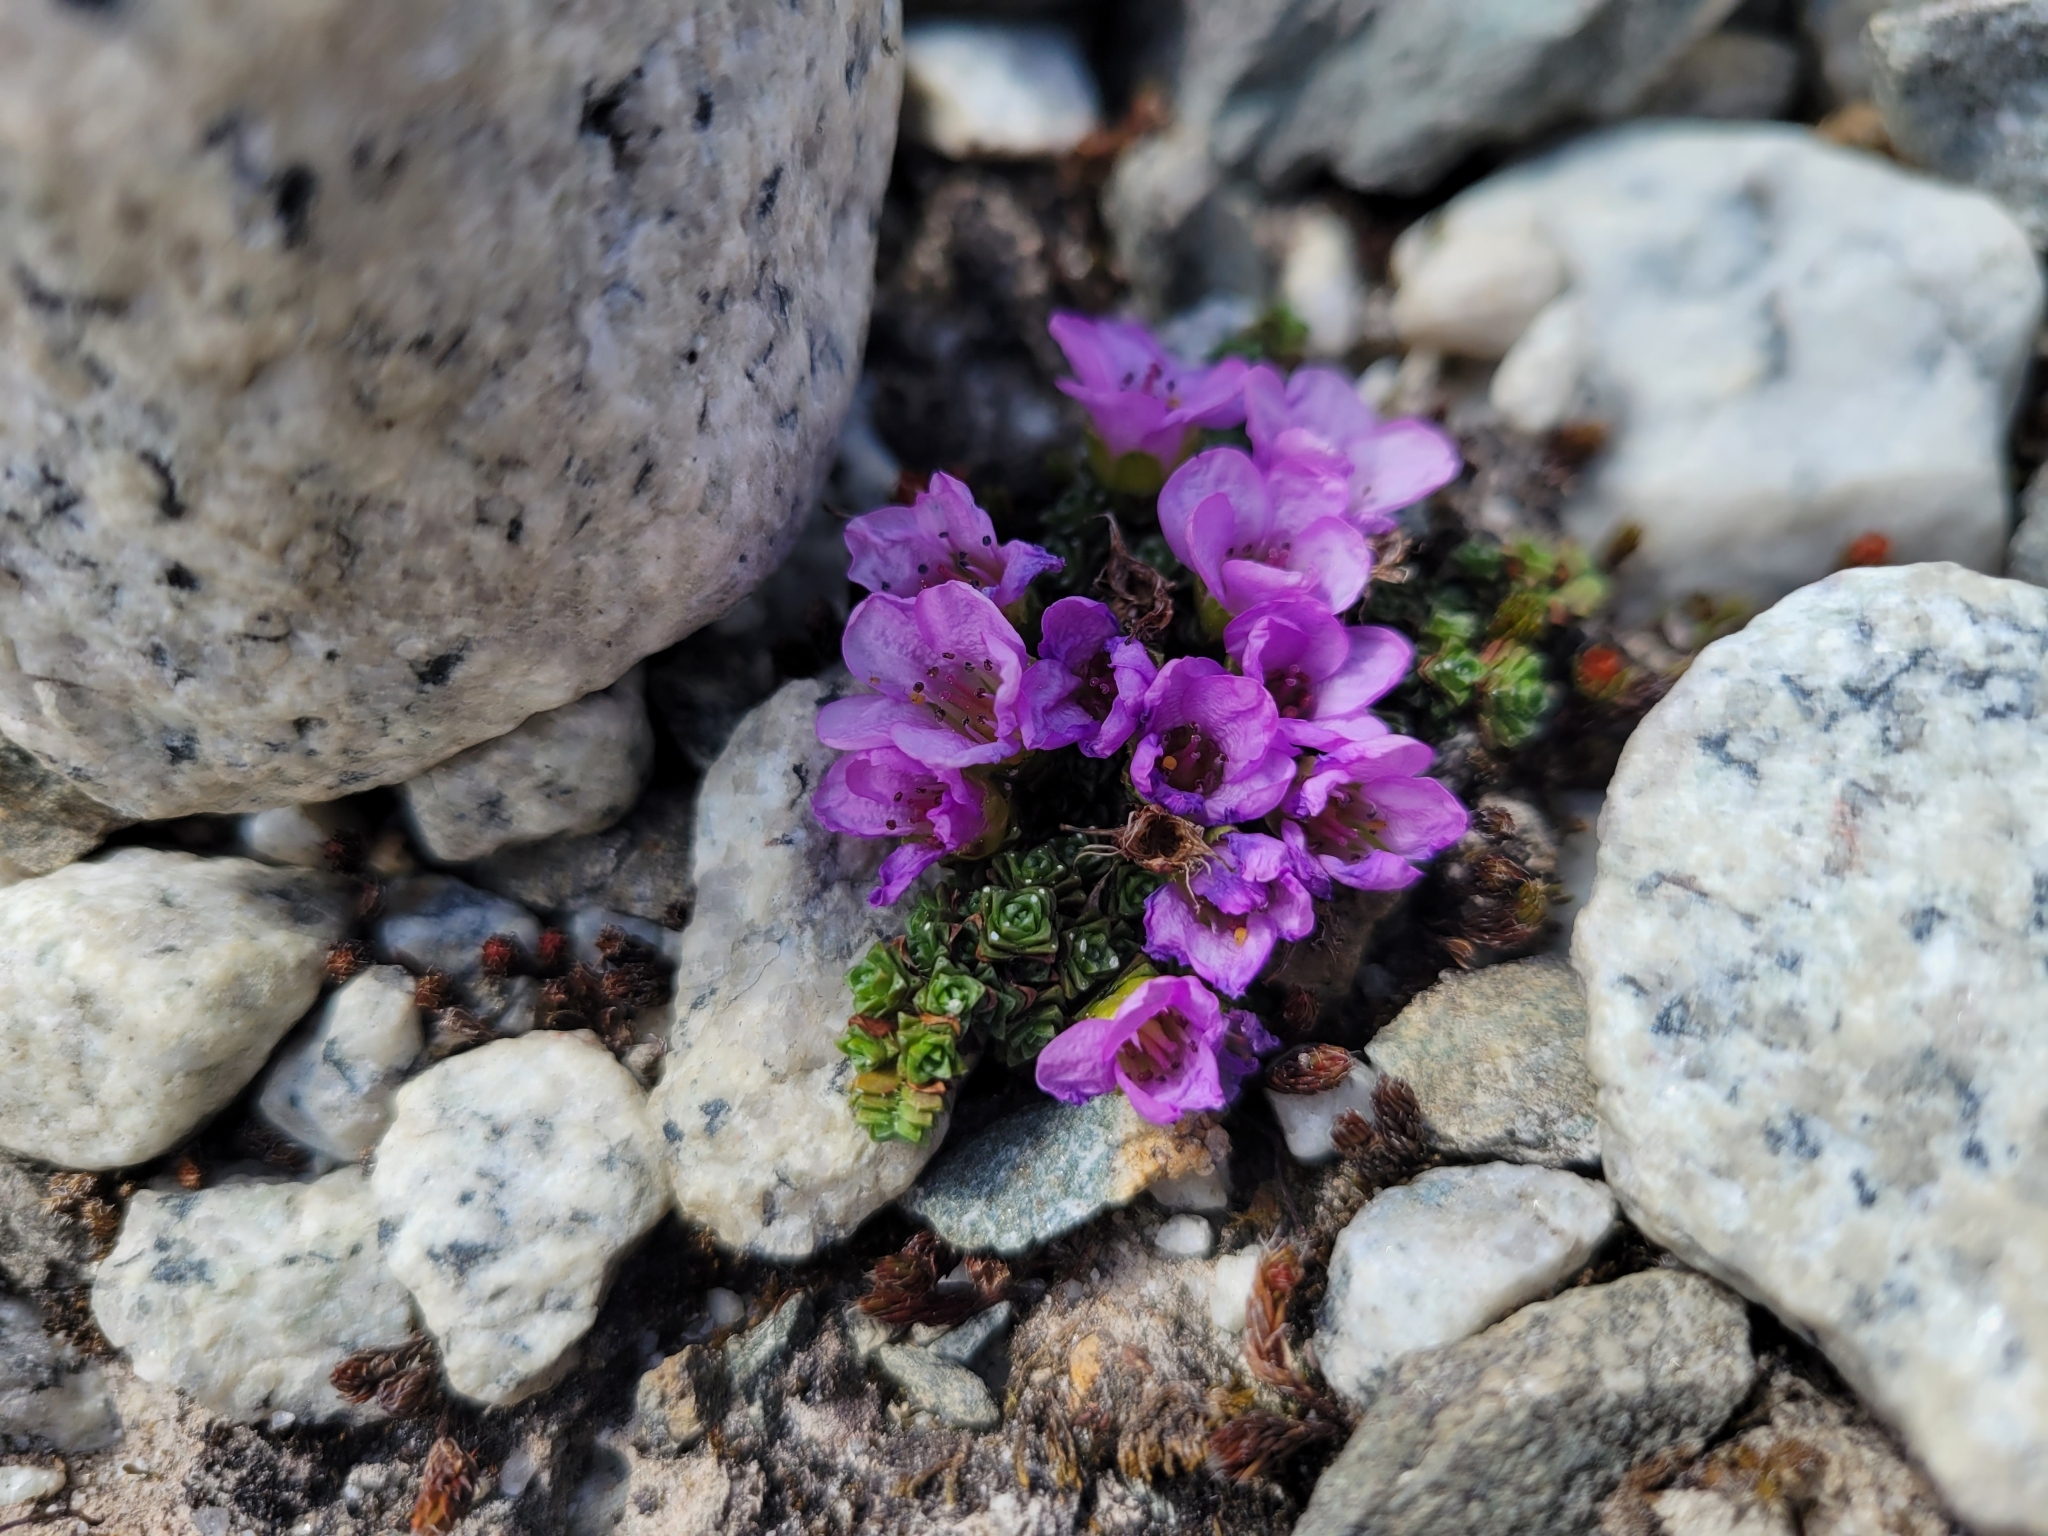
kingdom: Plantae
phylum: Tracheophyta
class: Magnoliopsida
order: Saxifragales
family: Saxifragaceae
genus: Saxifraga
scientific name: Saxifraga oppositifolia
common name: Purple saxifrage
